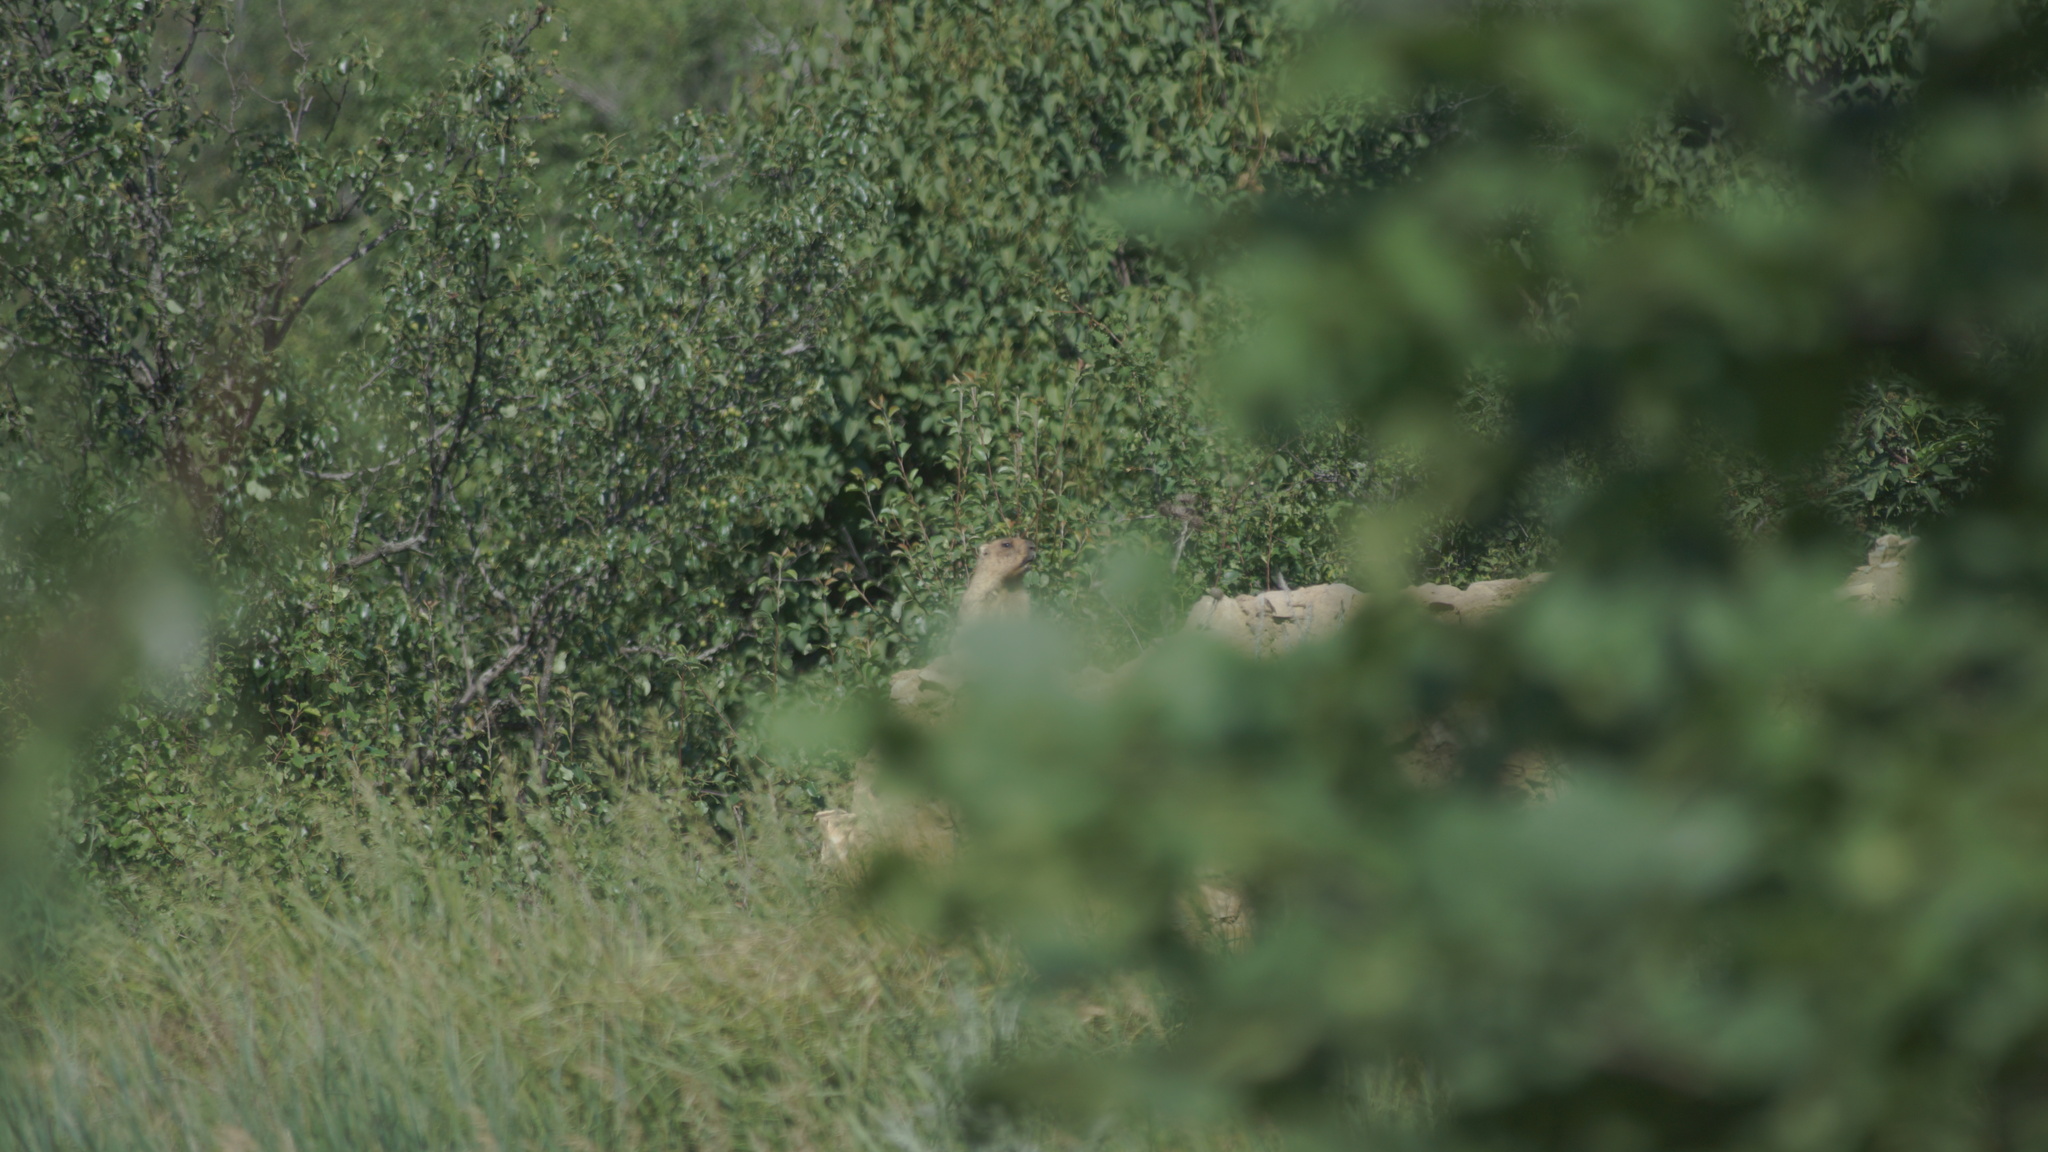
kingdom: Animalia
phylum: Chordata
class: Mammalia
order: Rodentia
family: Sciuridae
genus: Marmota
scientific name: Marmota bobak
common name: Bobak marmot
